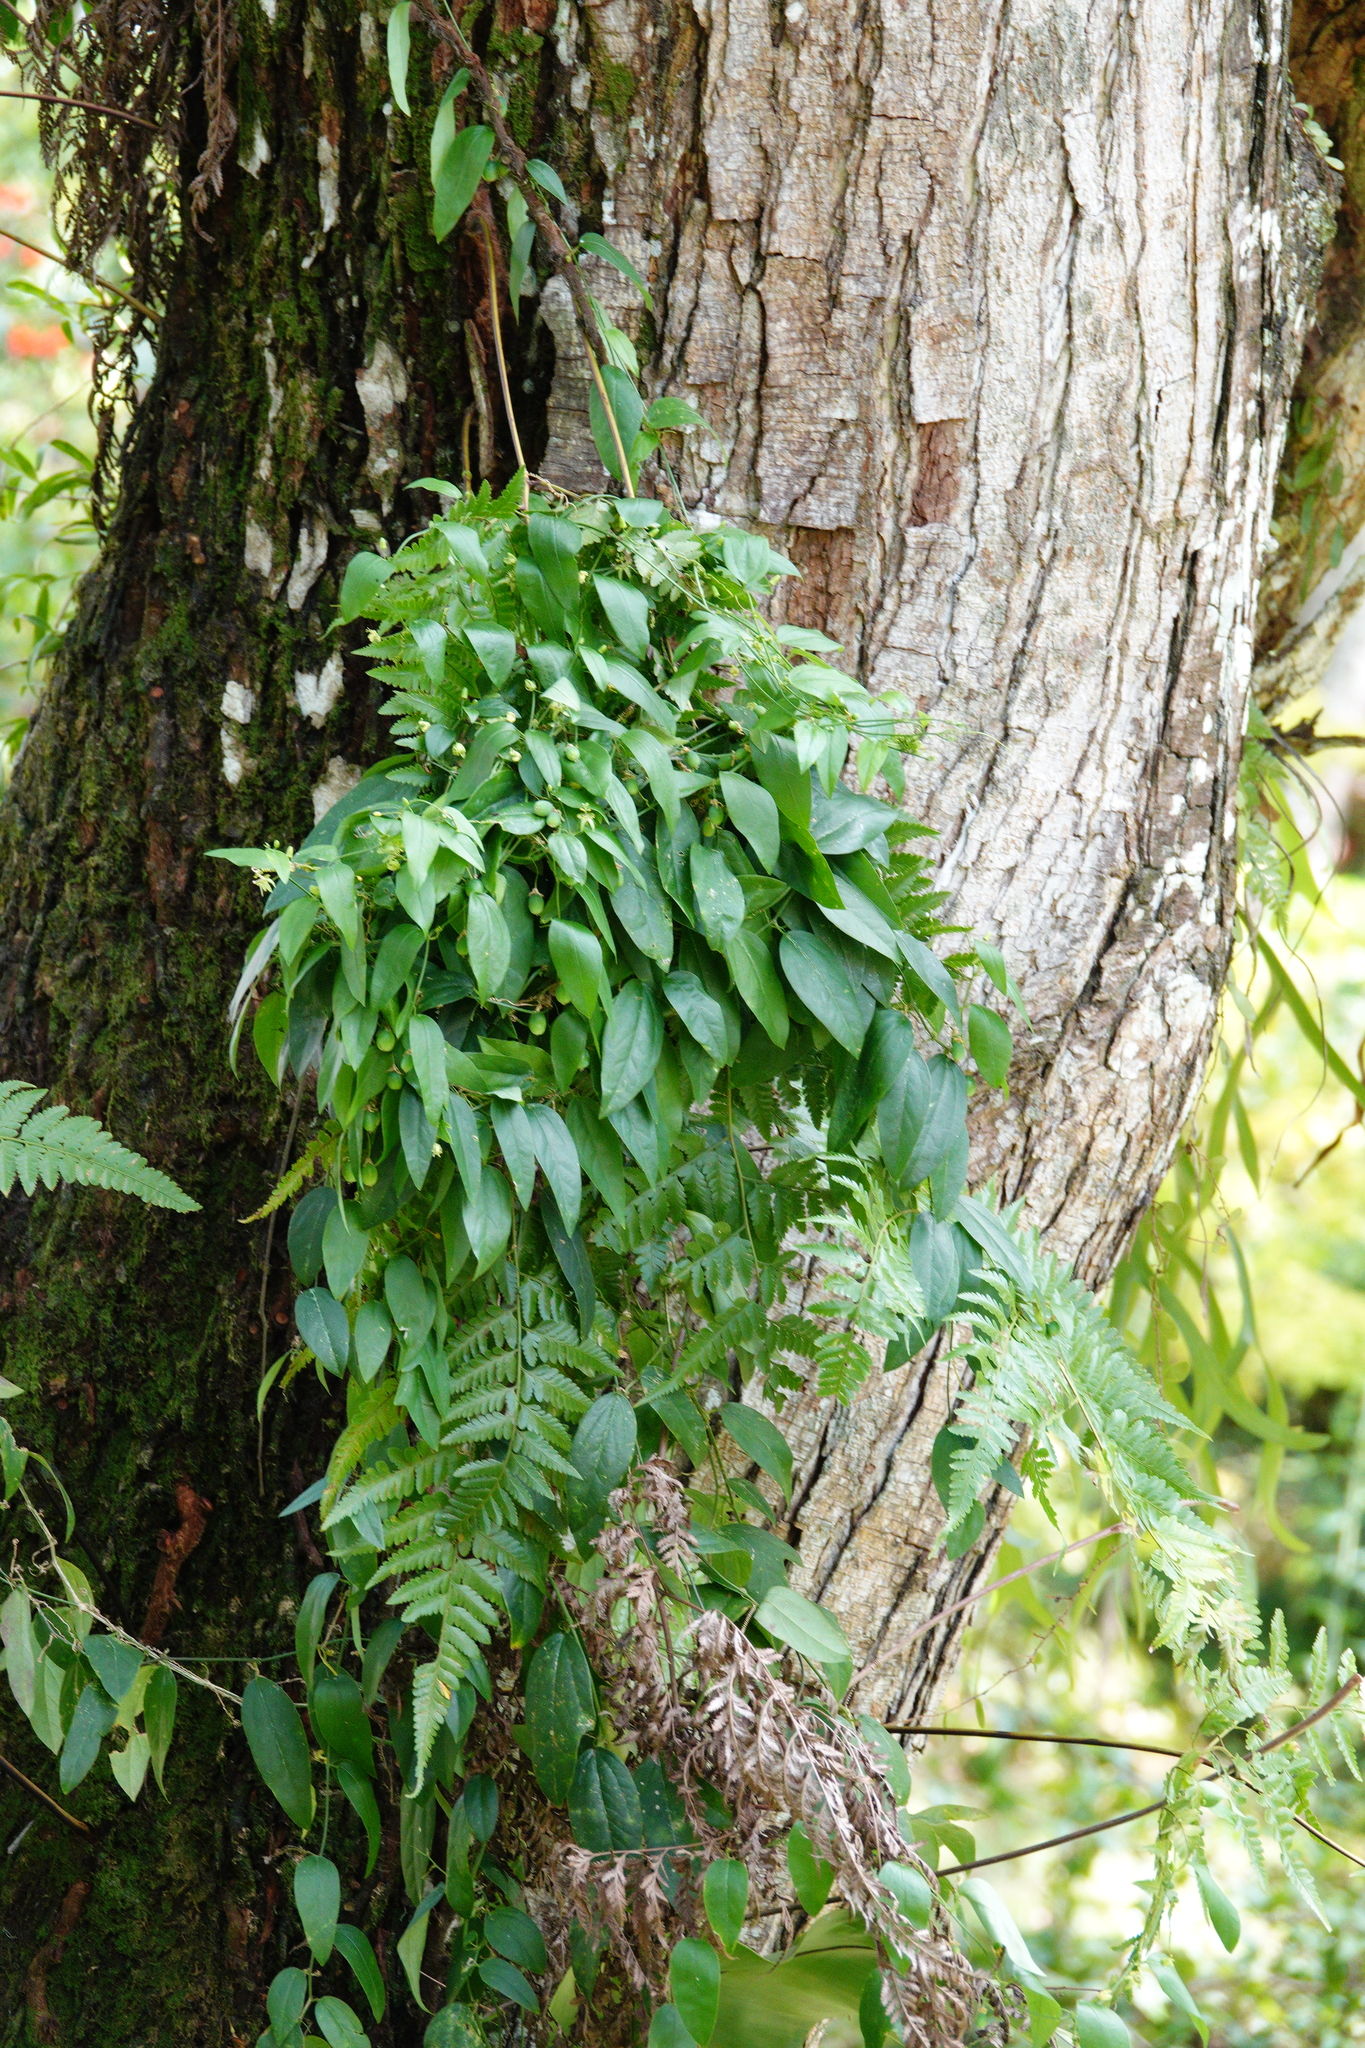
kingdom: Plantae
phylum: Tracheophyta
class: Magnoliopsida
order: Malpighiales
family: Passifloraceae
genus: Passiflora
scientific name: Passiflora pallida
